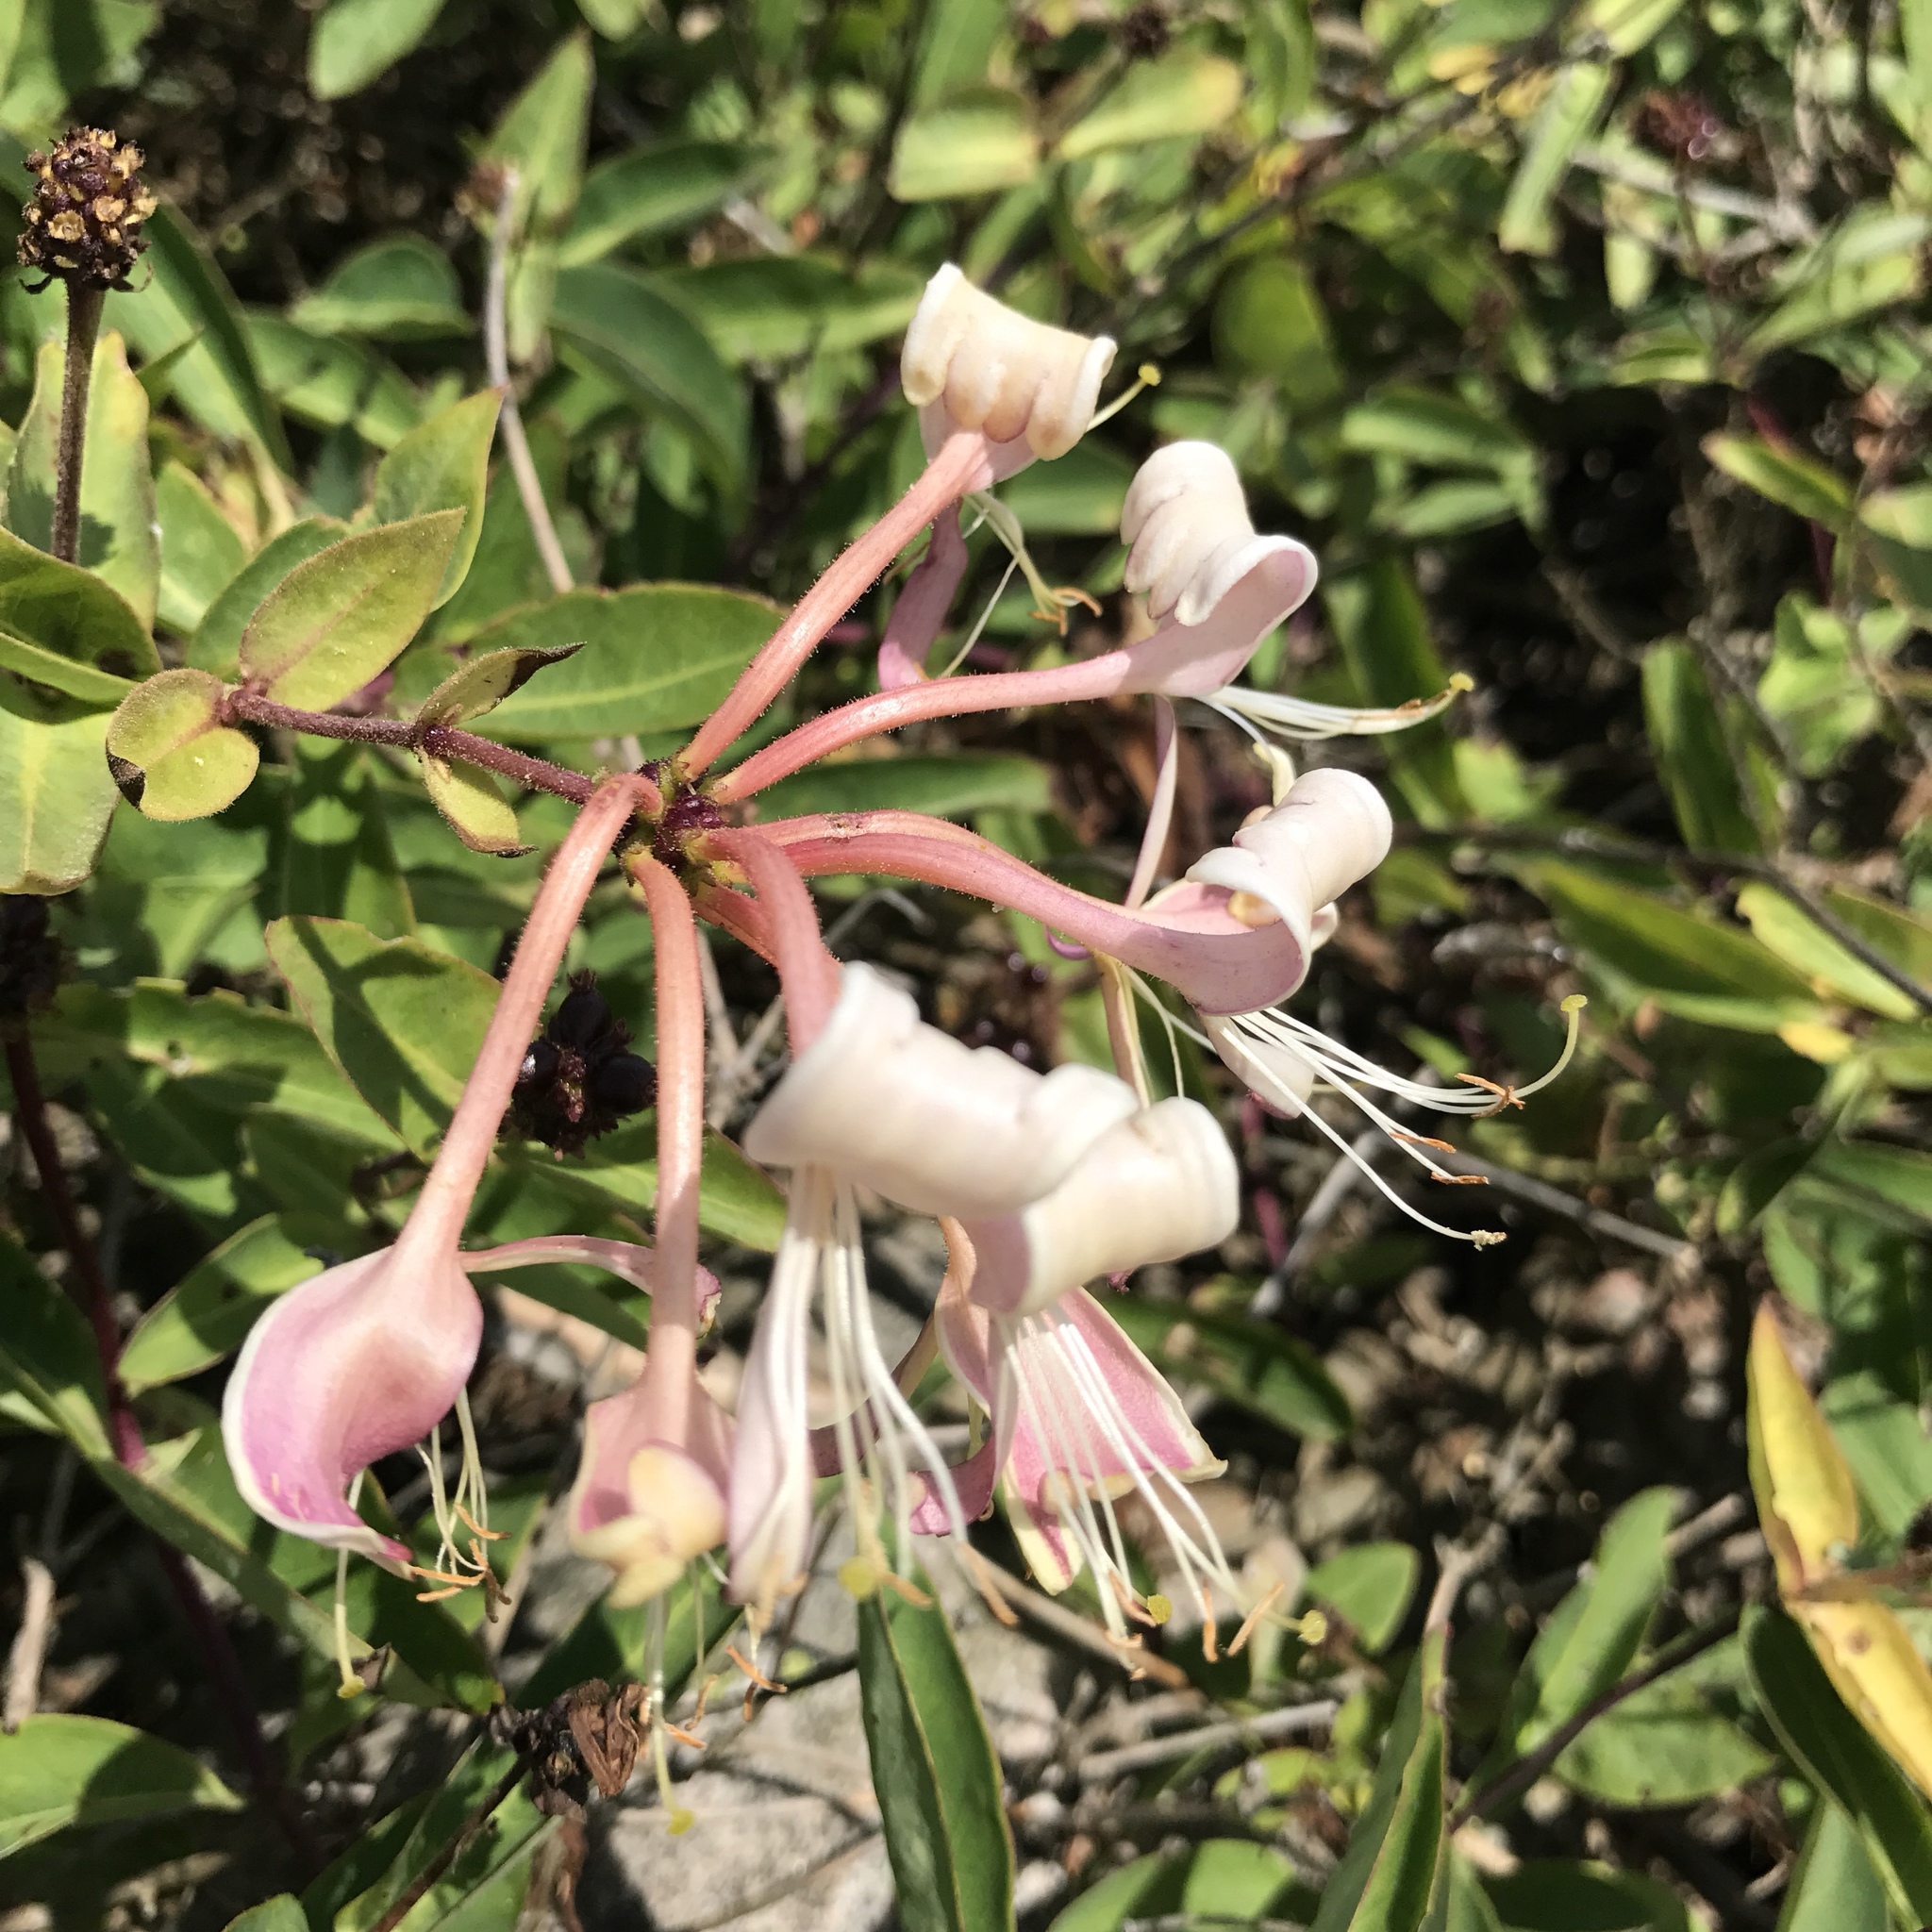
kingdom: Plantae
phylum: Tracheophyta
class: Magnoliopsida
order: Dipsacales
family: Caprifoliaceae
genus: Lonicera
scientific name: Lonicera periclymenum
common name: European honeysuckle
